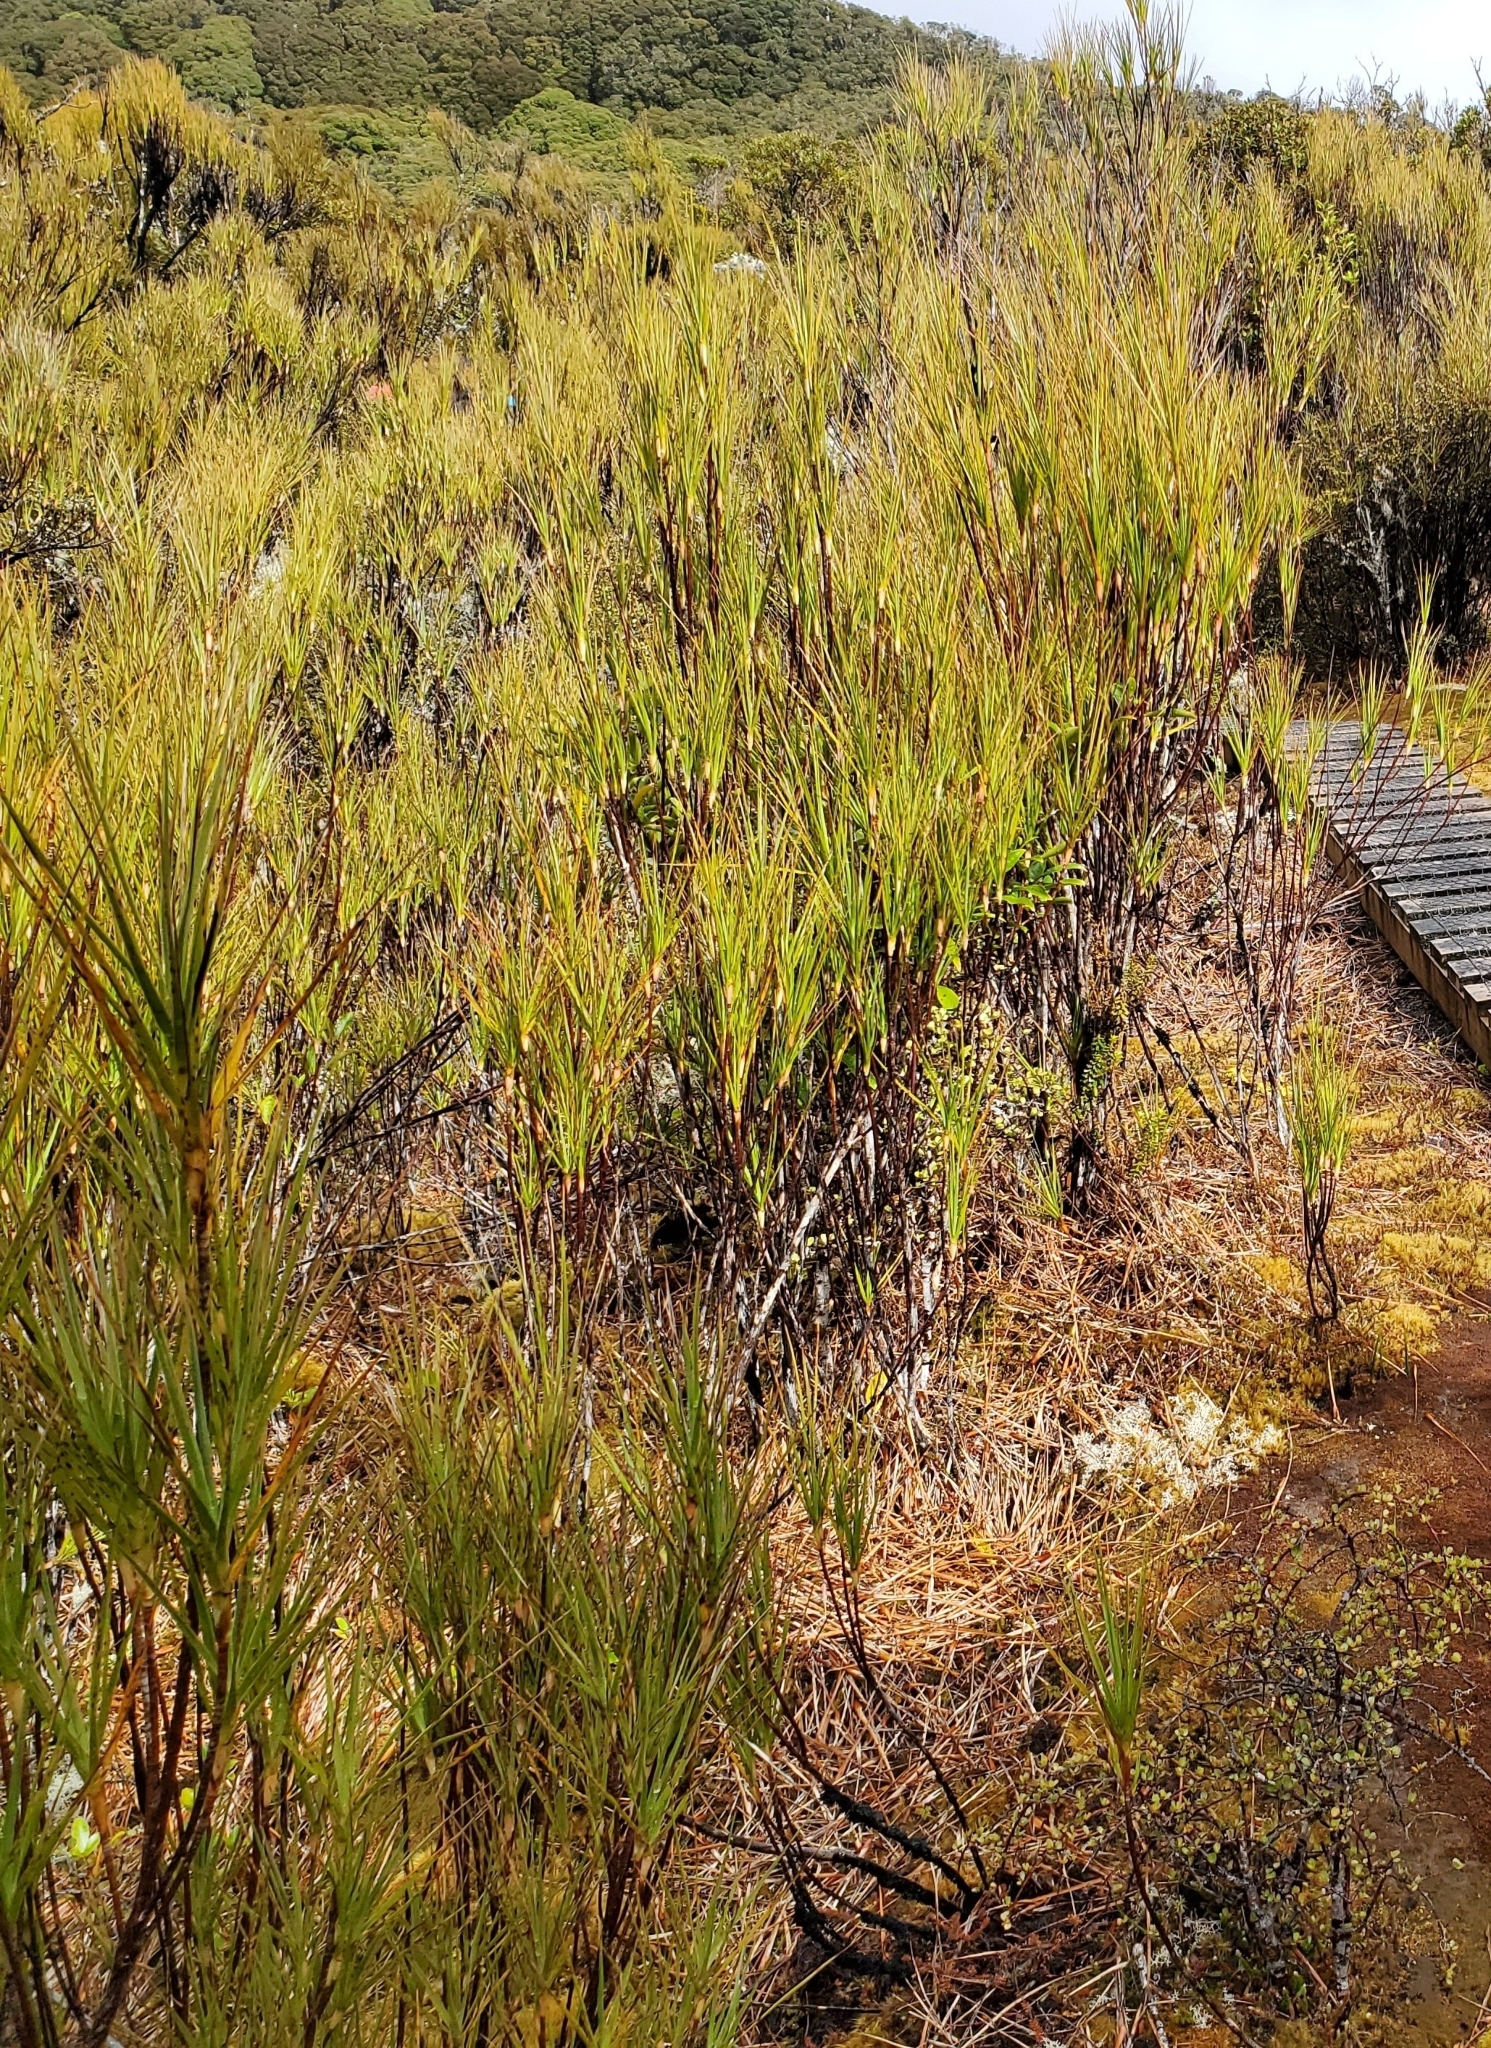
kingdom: Plantae
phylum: Tracheophyta
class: Magnoliopsida
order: Ericales
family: Ericaceae
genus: Dracophyllum
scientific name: Dracophyllum cockayneanum
